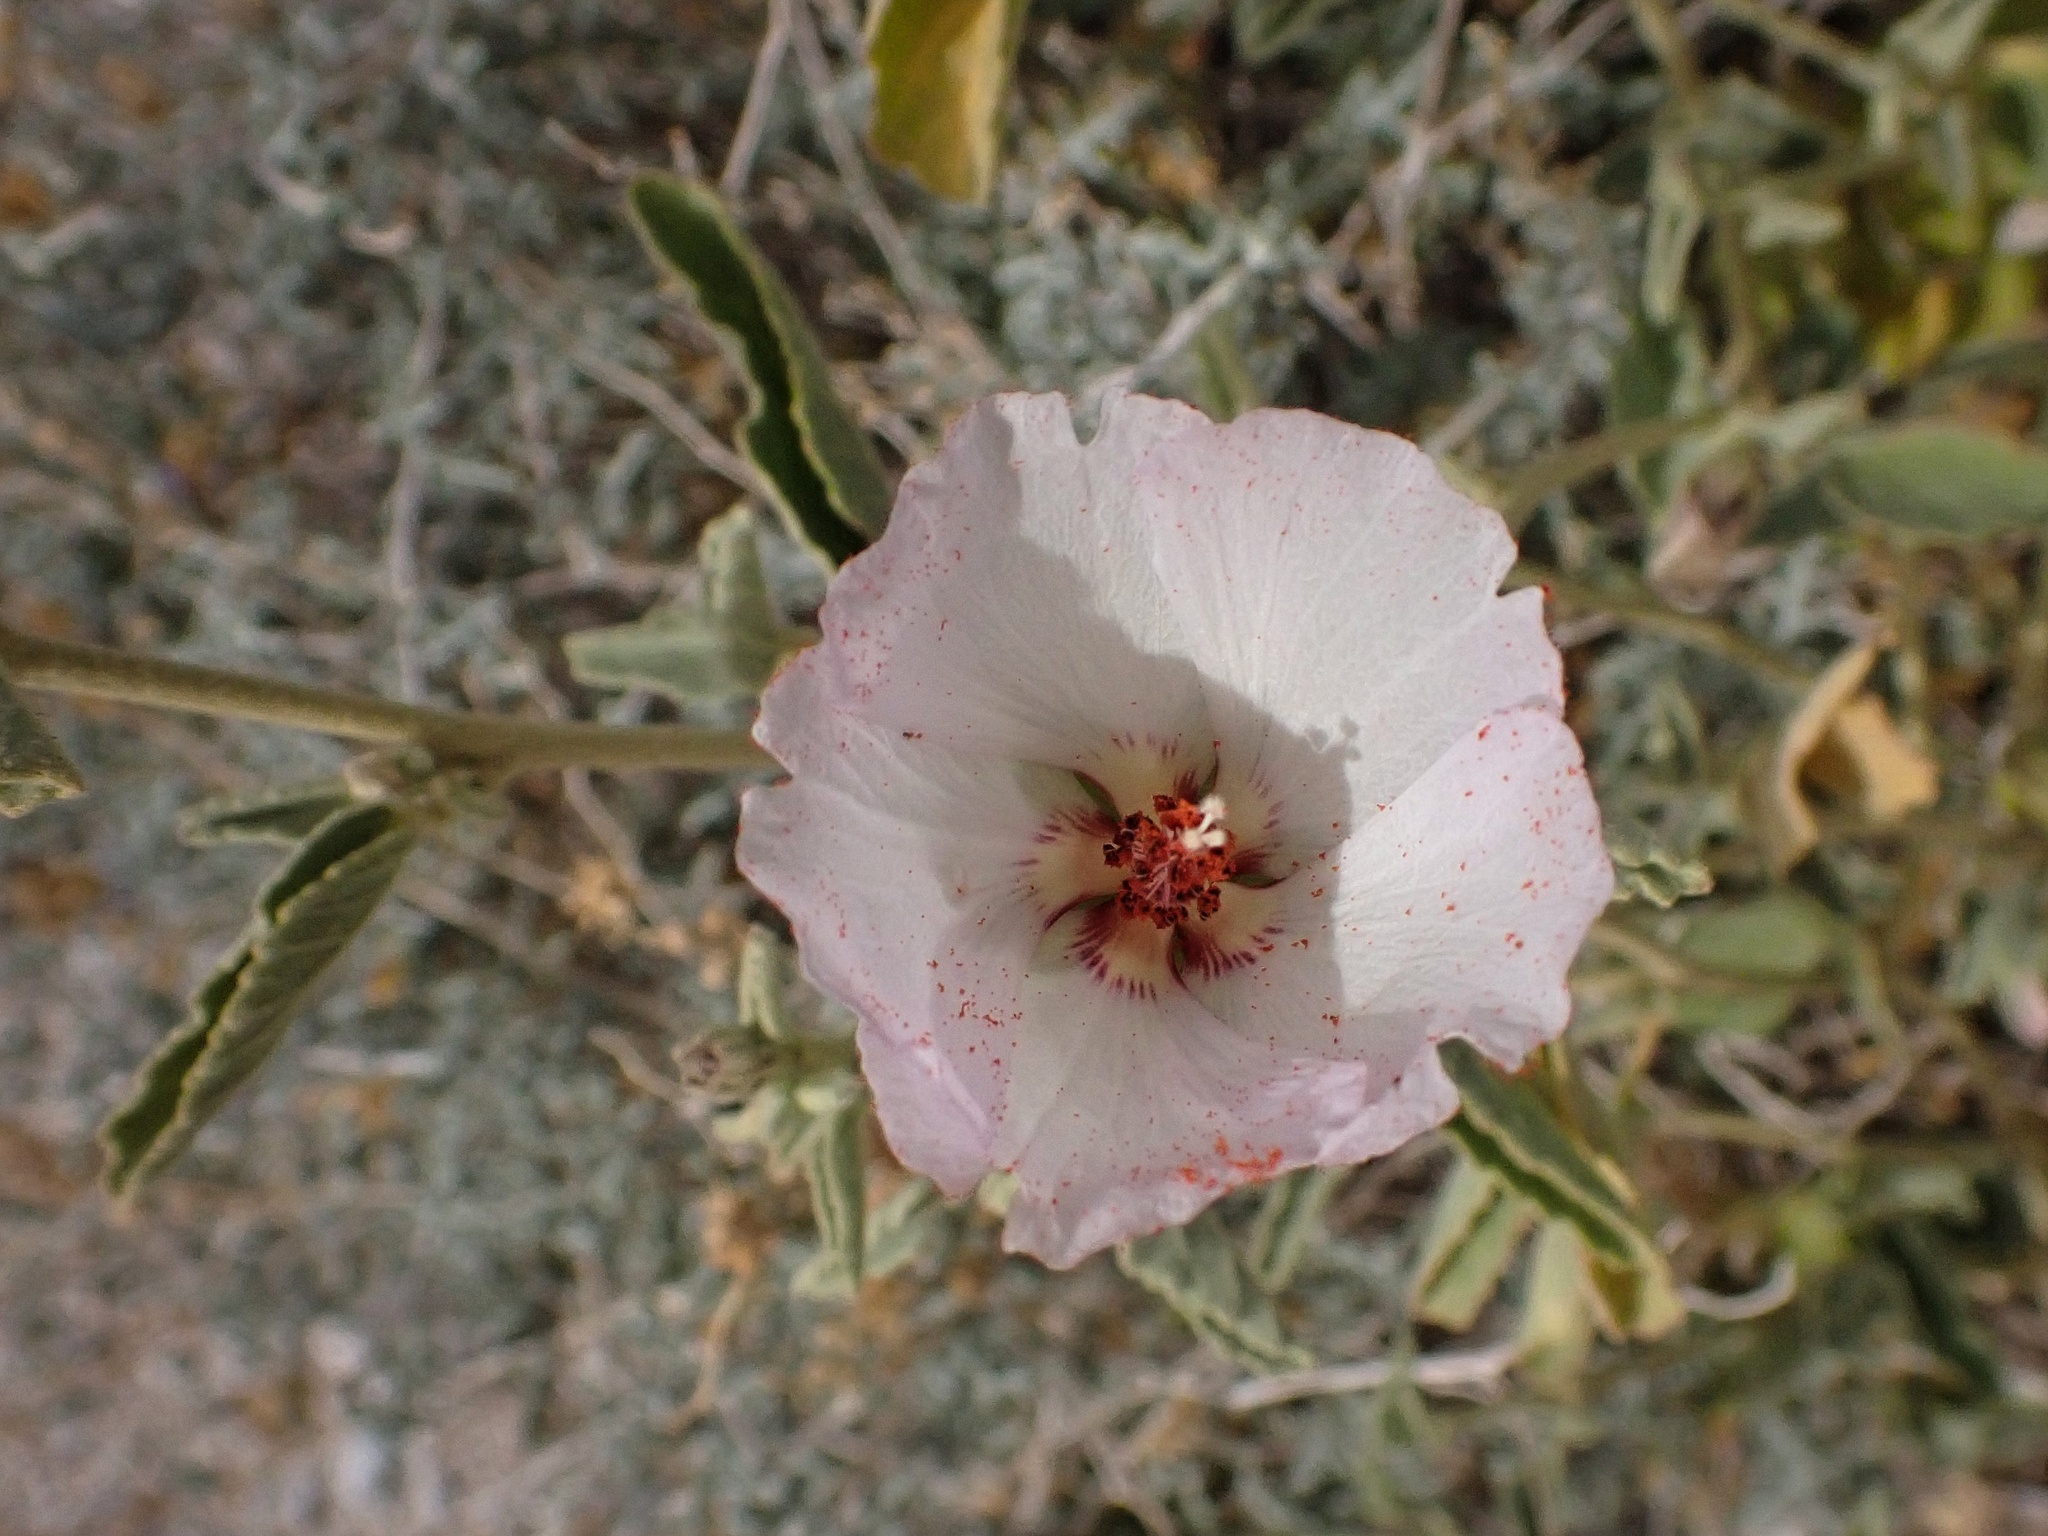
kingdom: Plantae
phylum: Tracheophyta
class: Magnoliopsida
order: Malvales
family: Malvaceae
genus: Hibiscus
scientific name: Hibiscus denudatus
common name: Paleface
